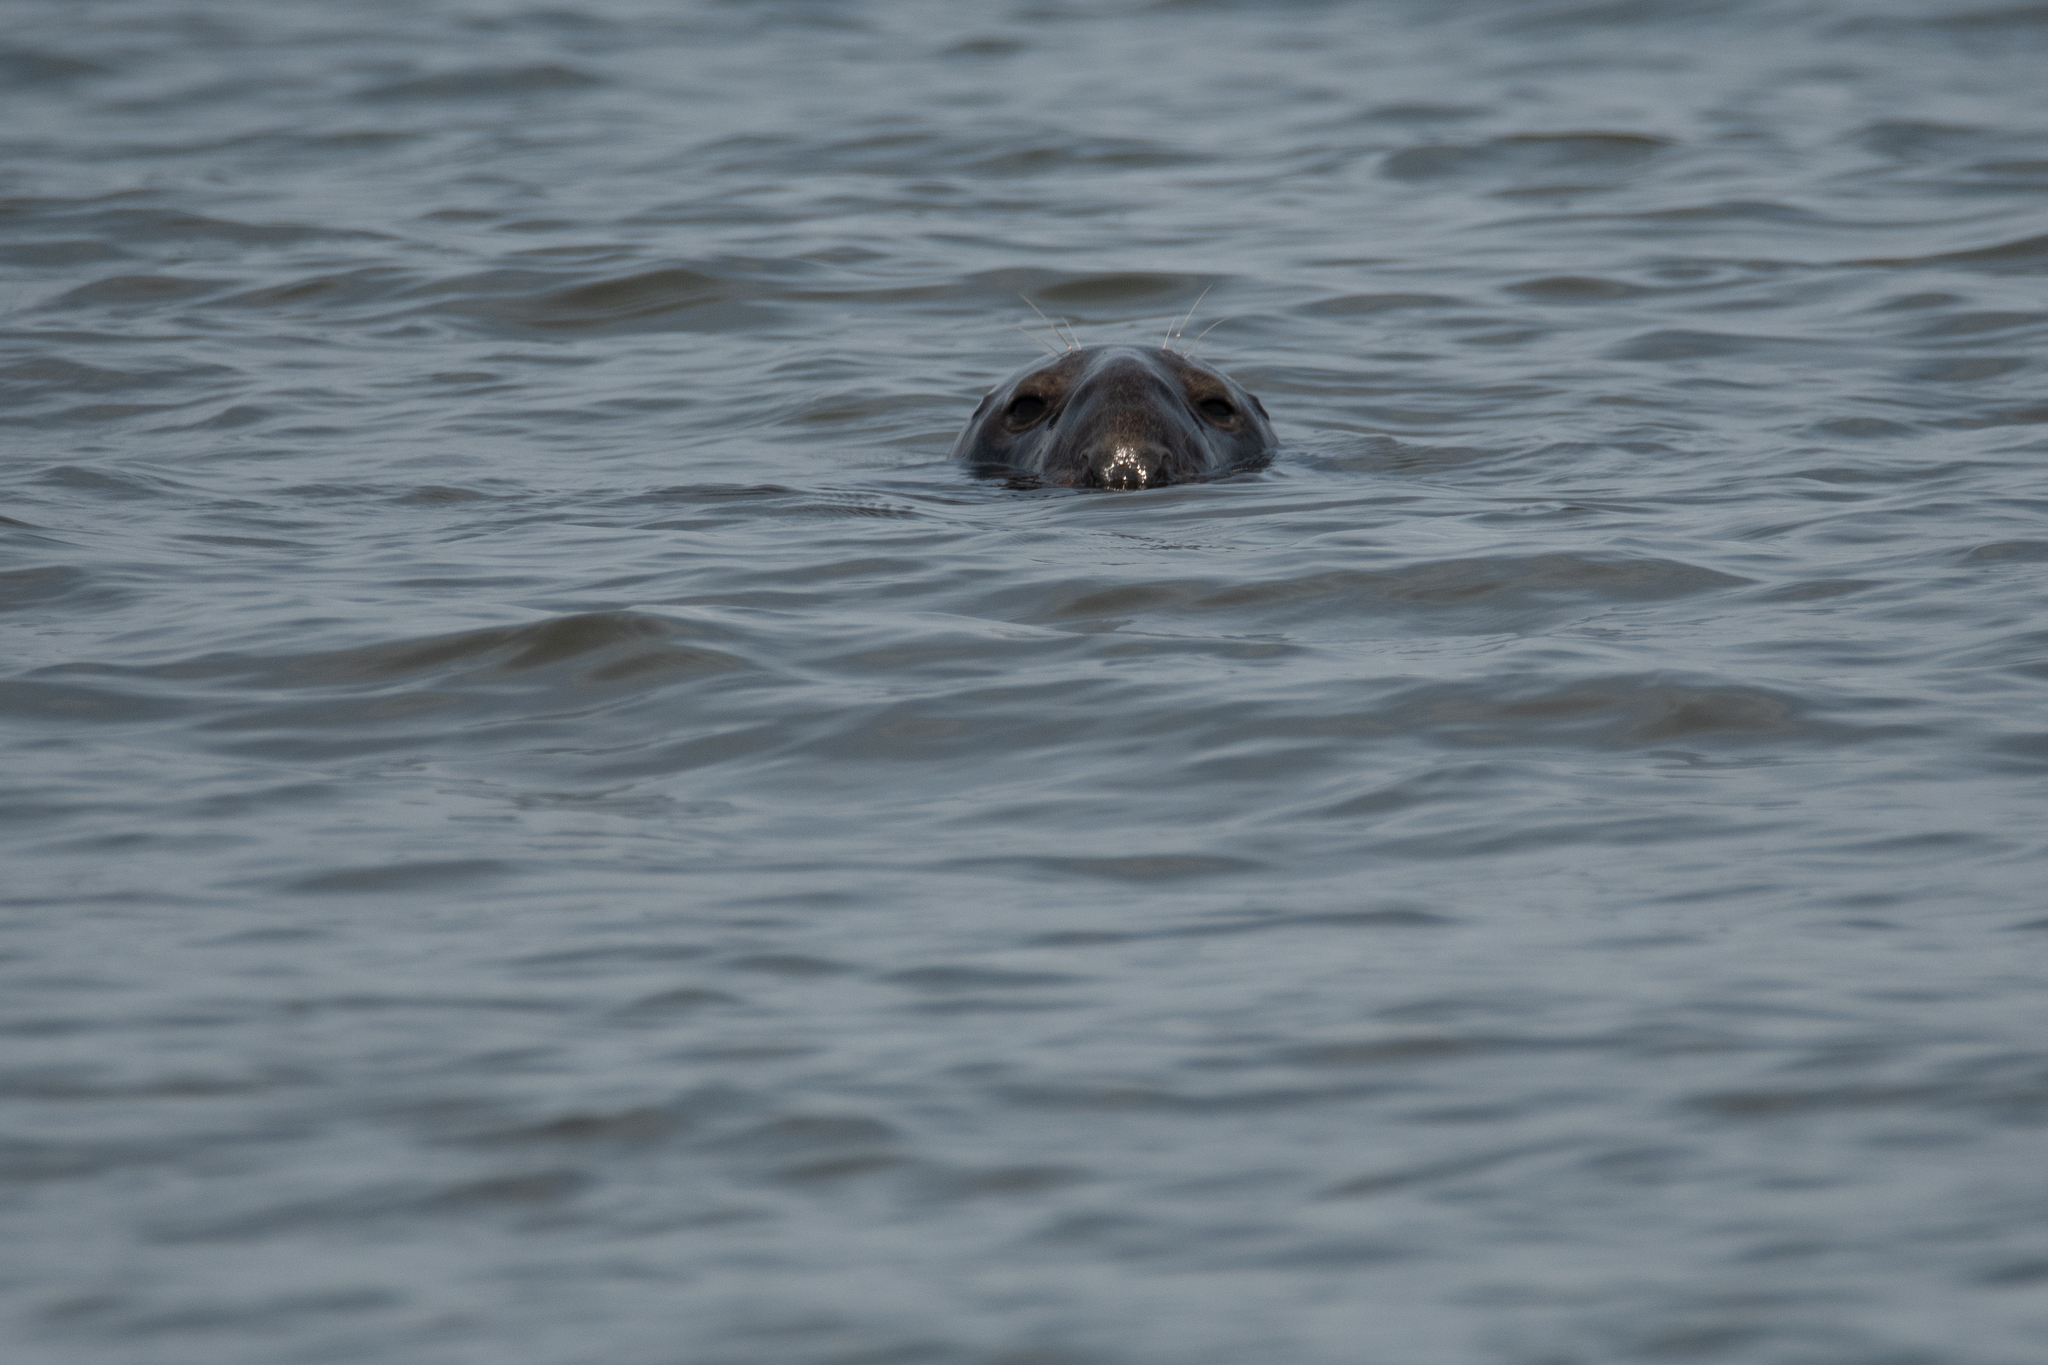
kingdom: Animalia
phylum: Chordata
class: Mammalia
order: Carnivora
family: Phocidae
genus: Halichoerus
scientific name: Halichoerus grypus
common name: Grey seal
